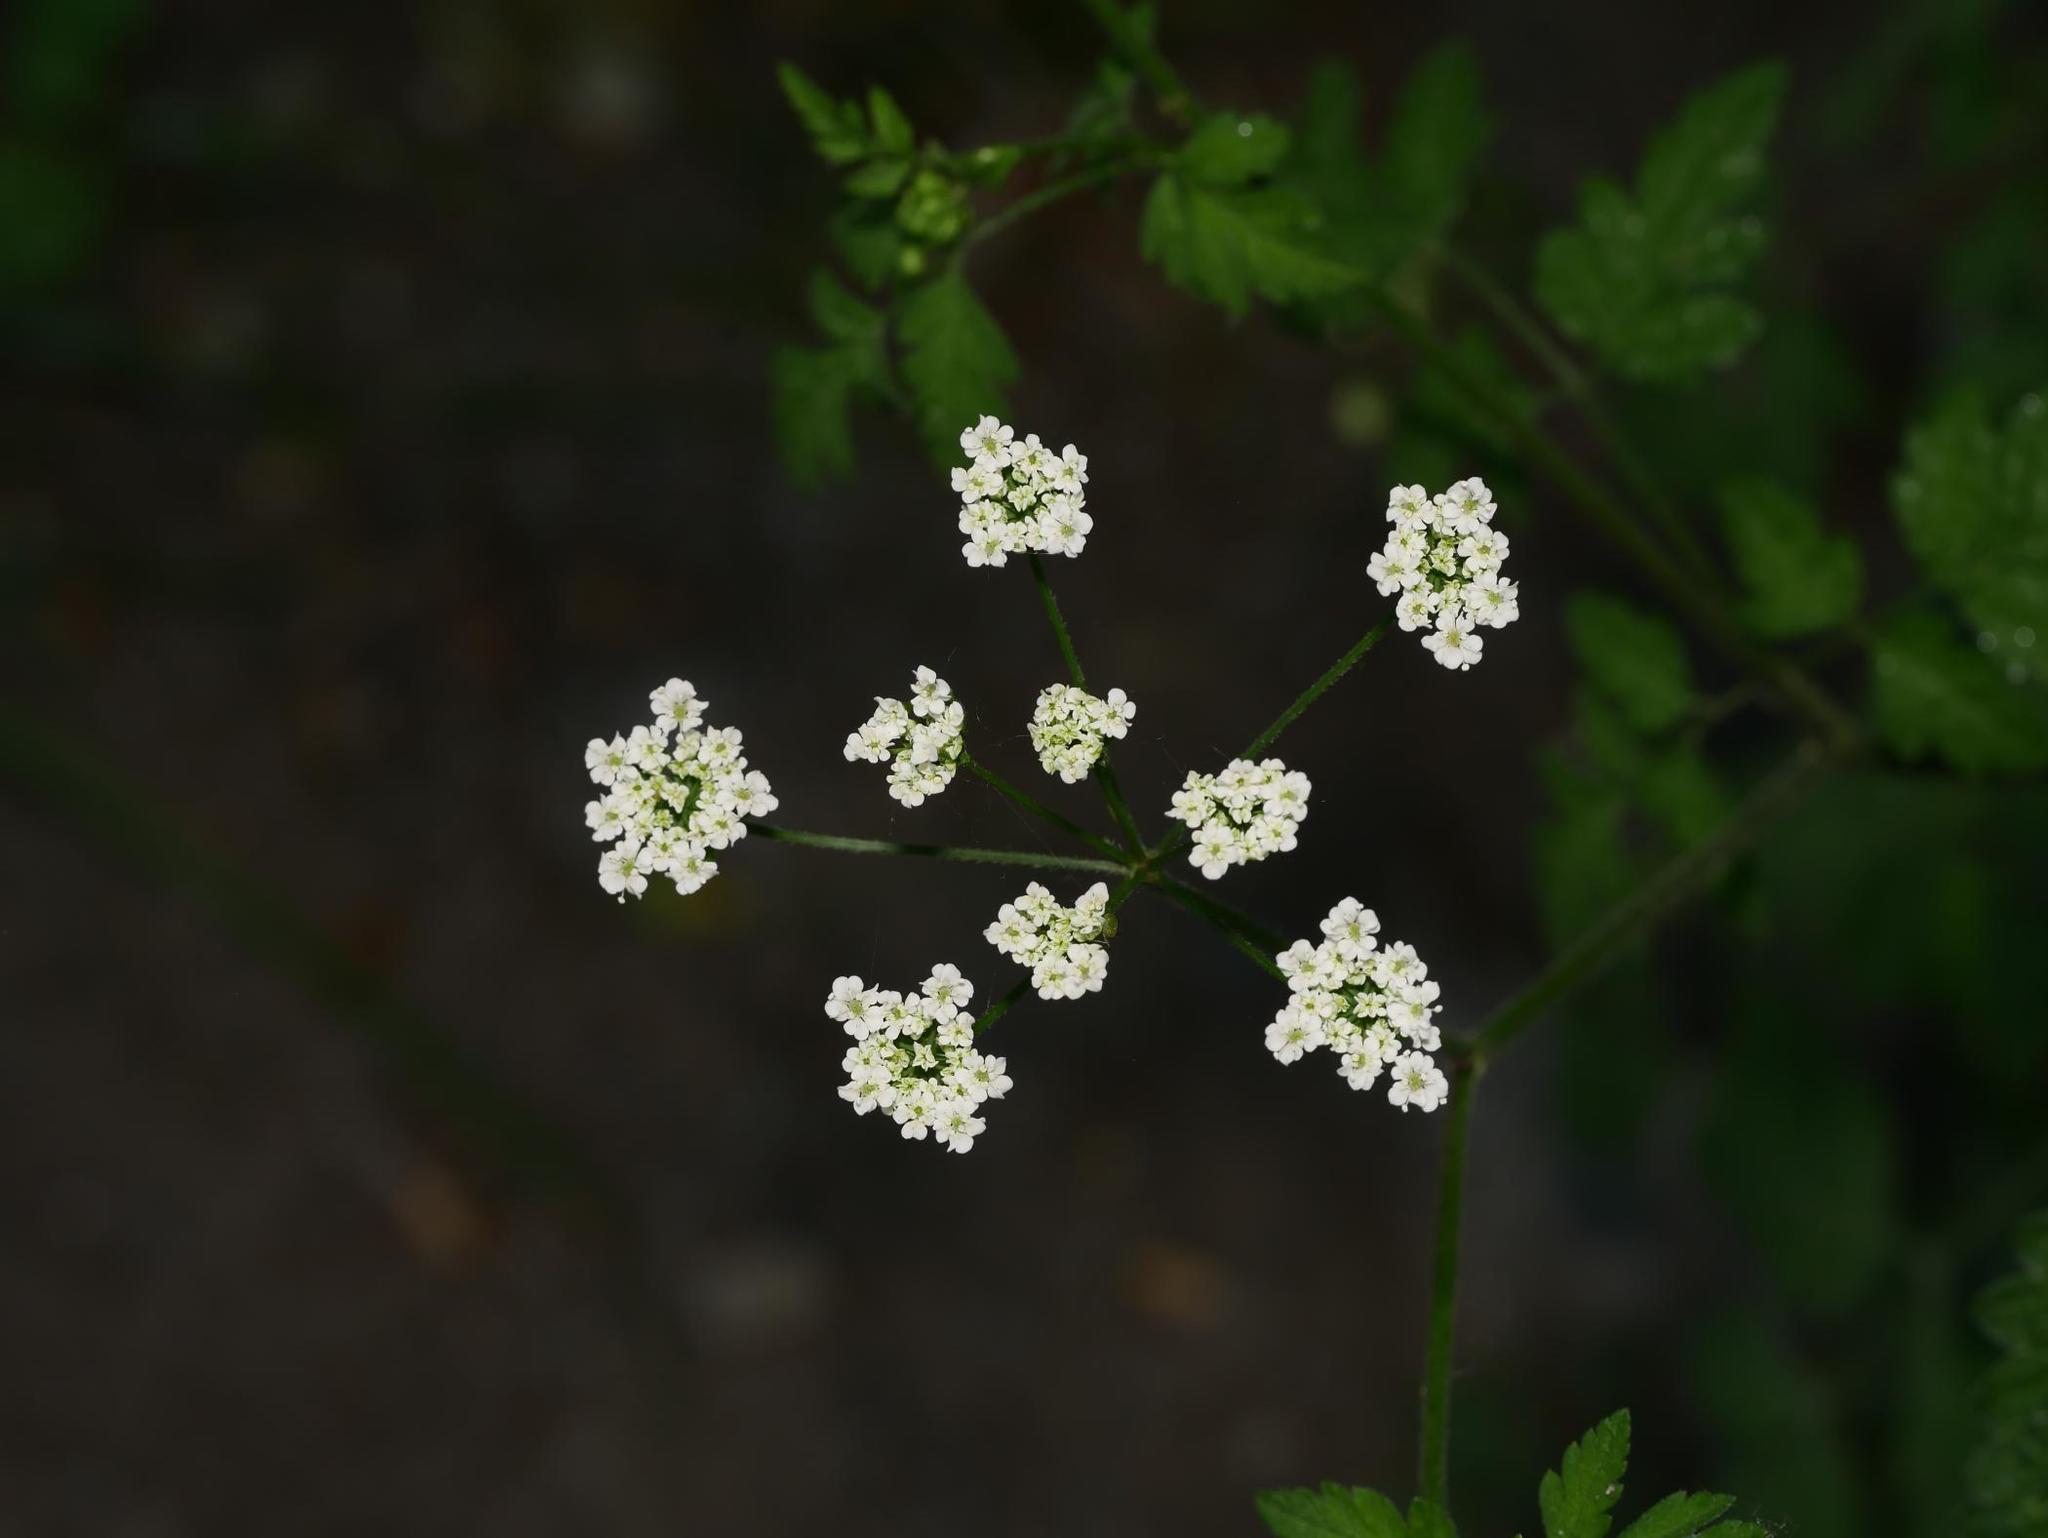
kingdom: Plantae
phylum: Tracheophyta
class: Magnoliopsida
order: Apiales
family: Apiaceae
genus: Chaerophyllum
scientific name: Chaerophyllum temulum
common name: Rough chervil
